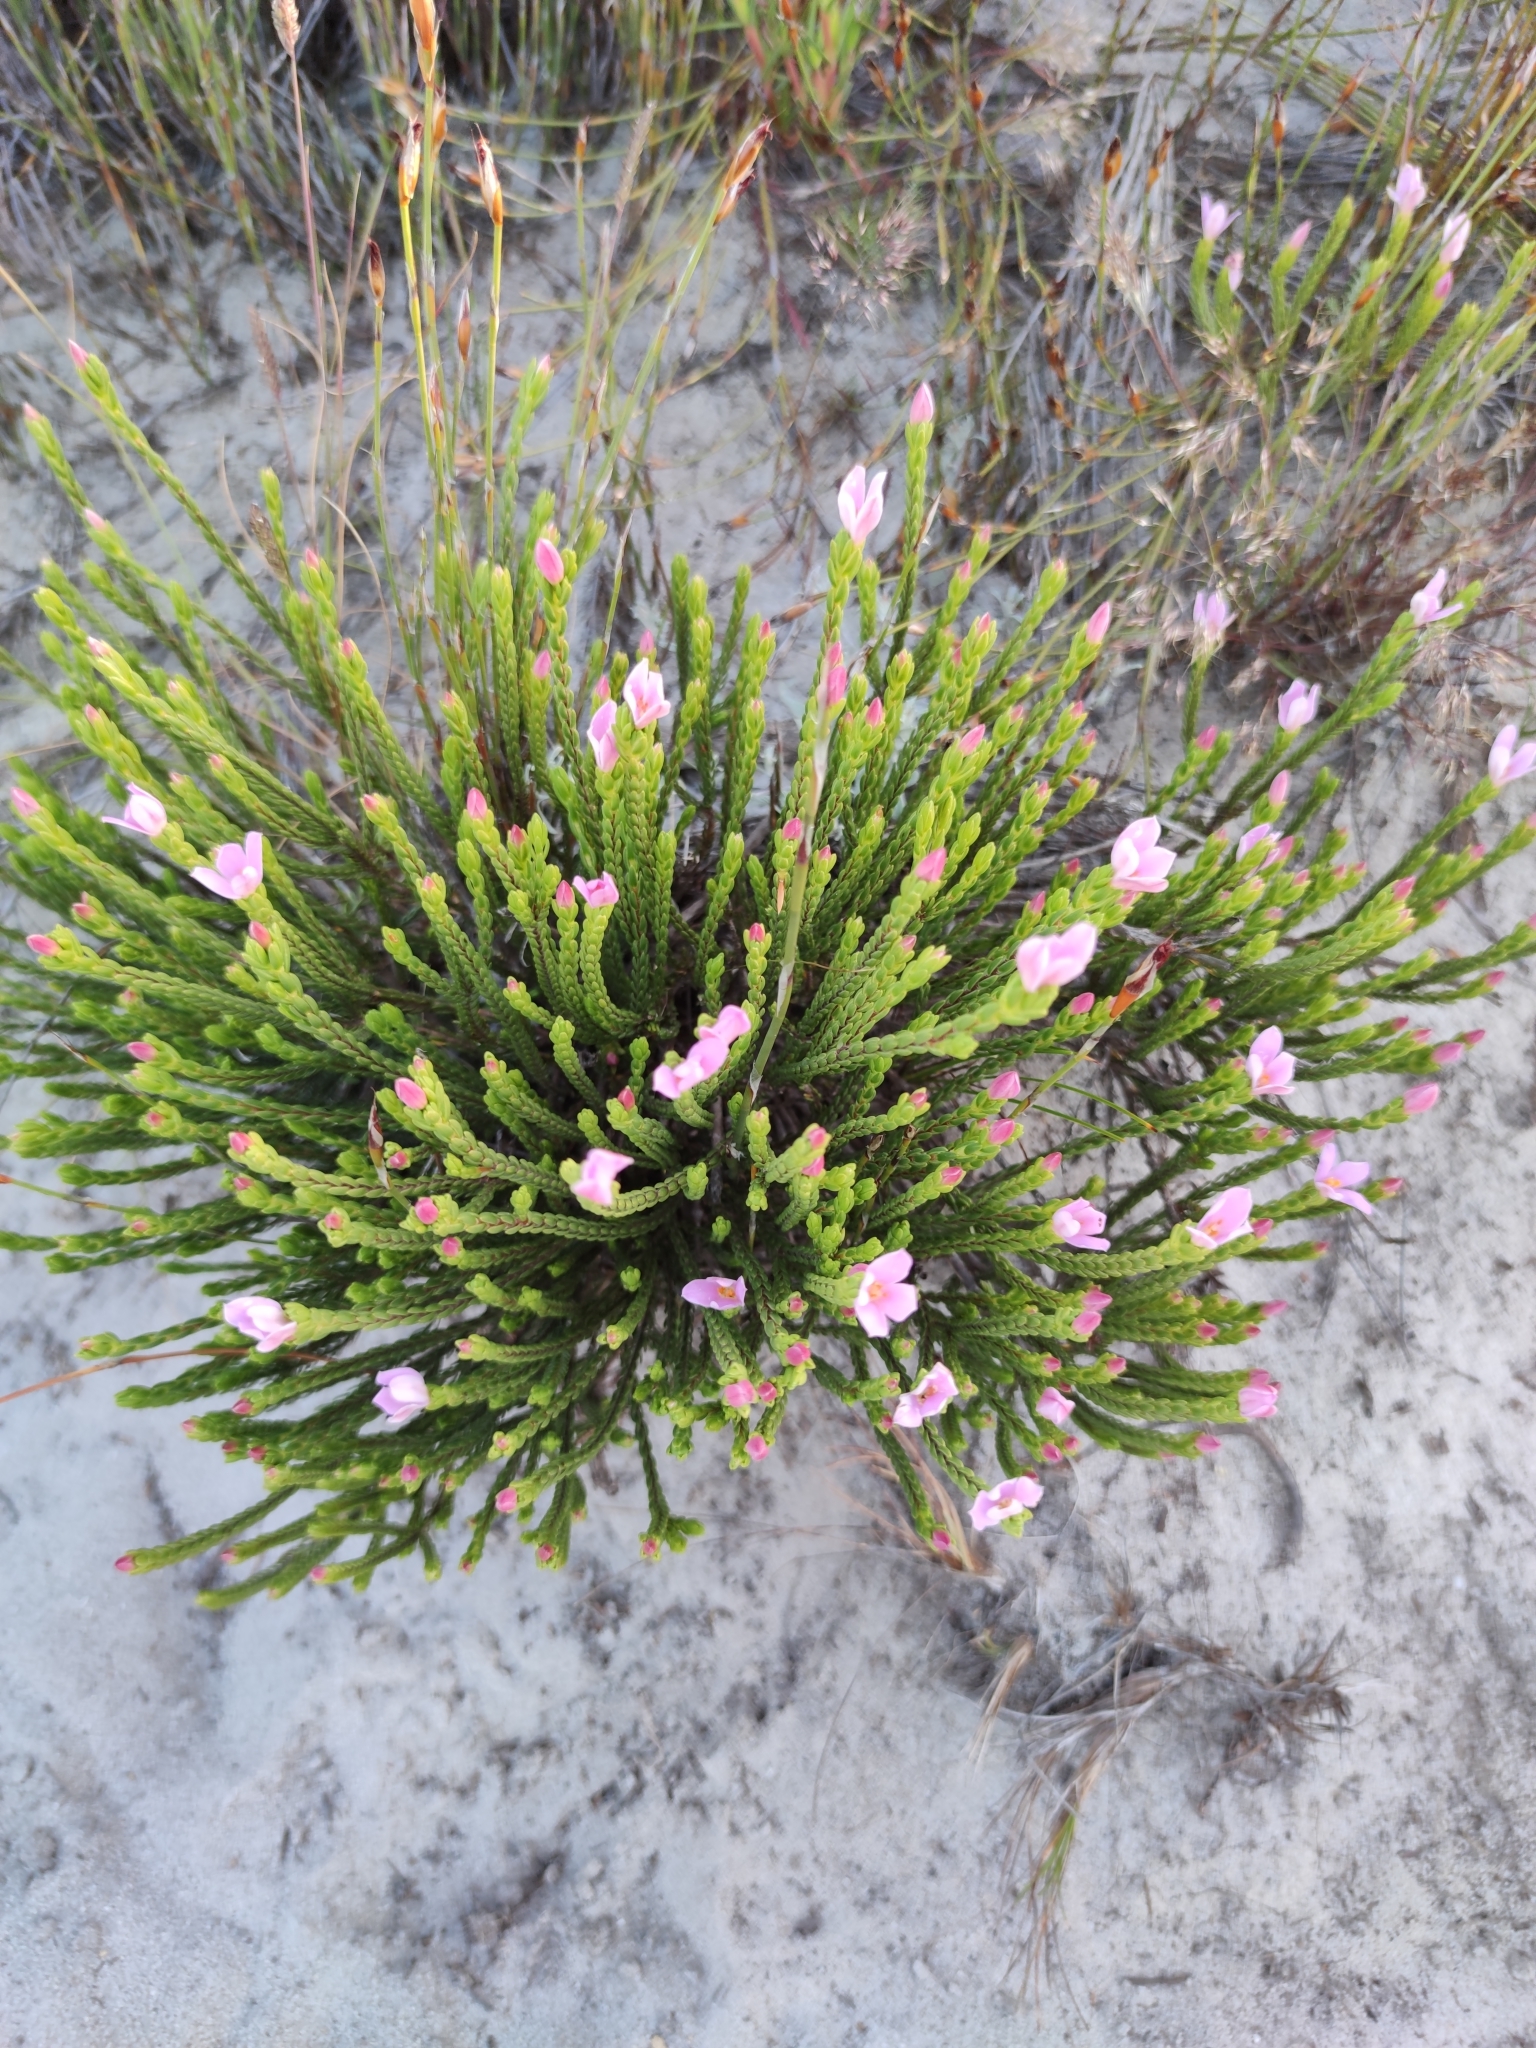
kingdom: Plantae
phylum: Tracheophyta
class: Magnoliopsida
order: Malvales
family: Thymelaeaceae
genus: Lachnaea
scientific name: Lachnaea grandiflora
